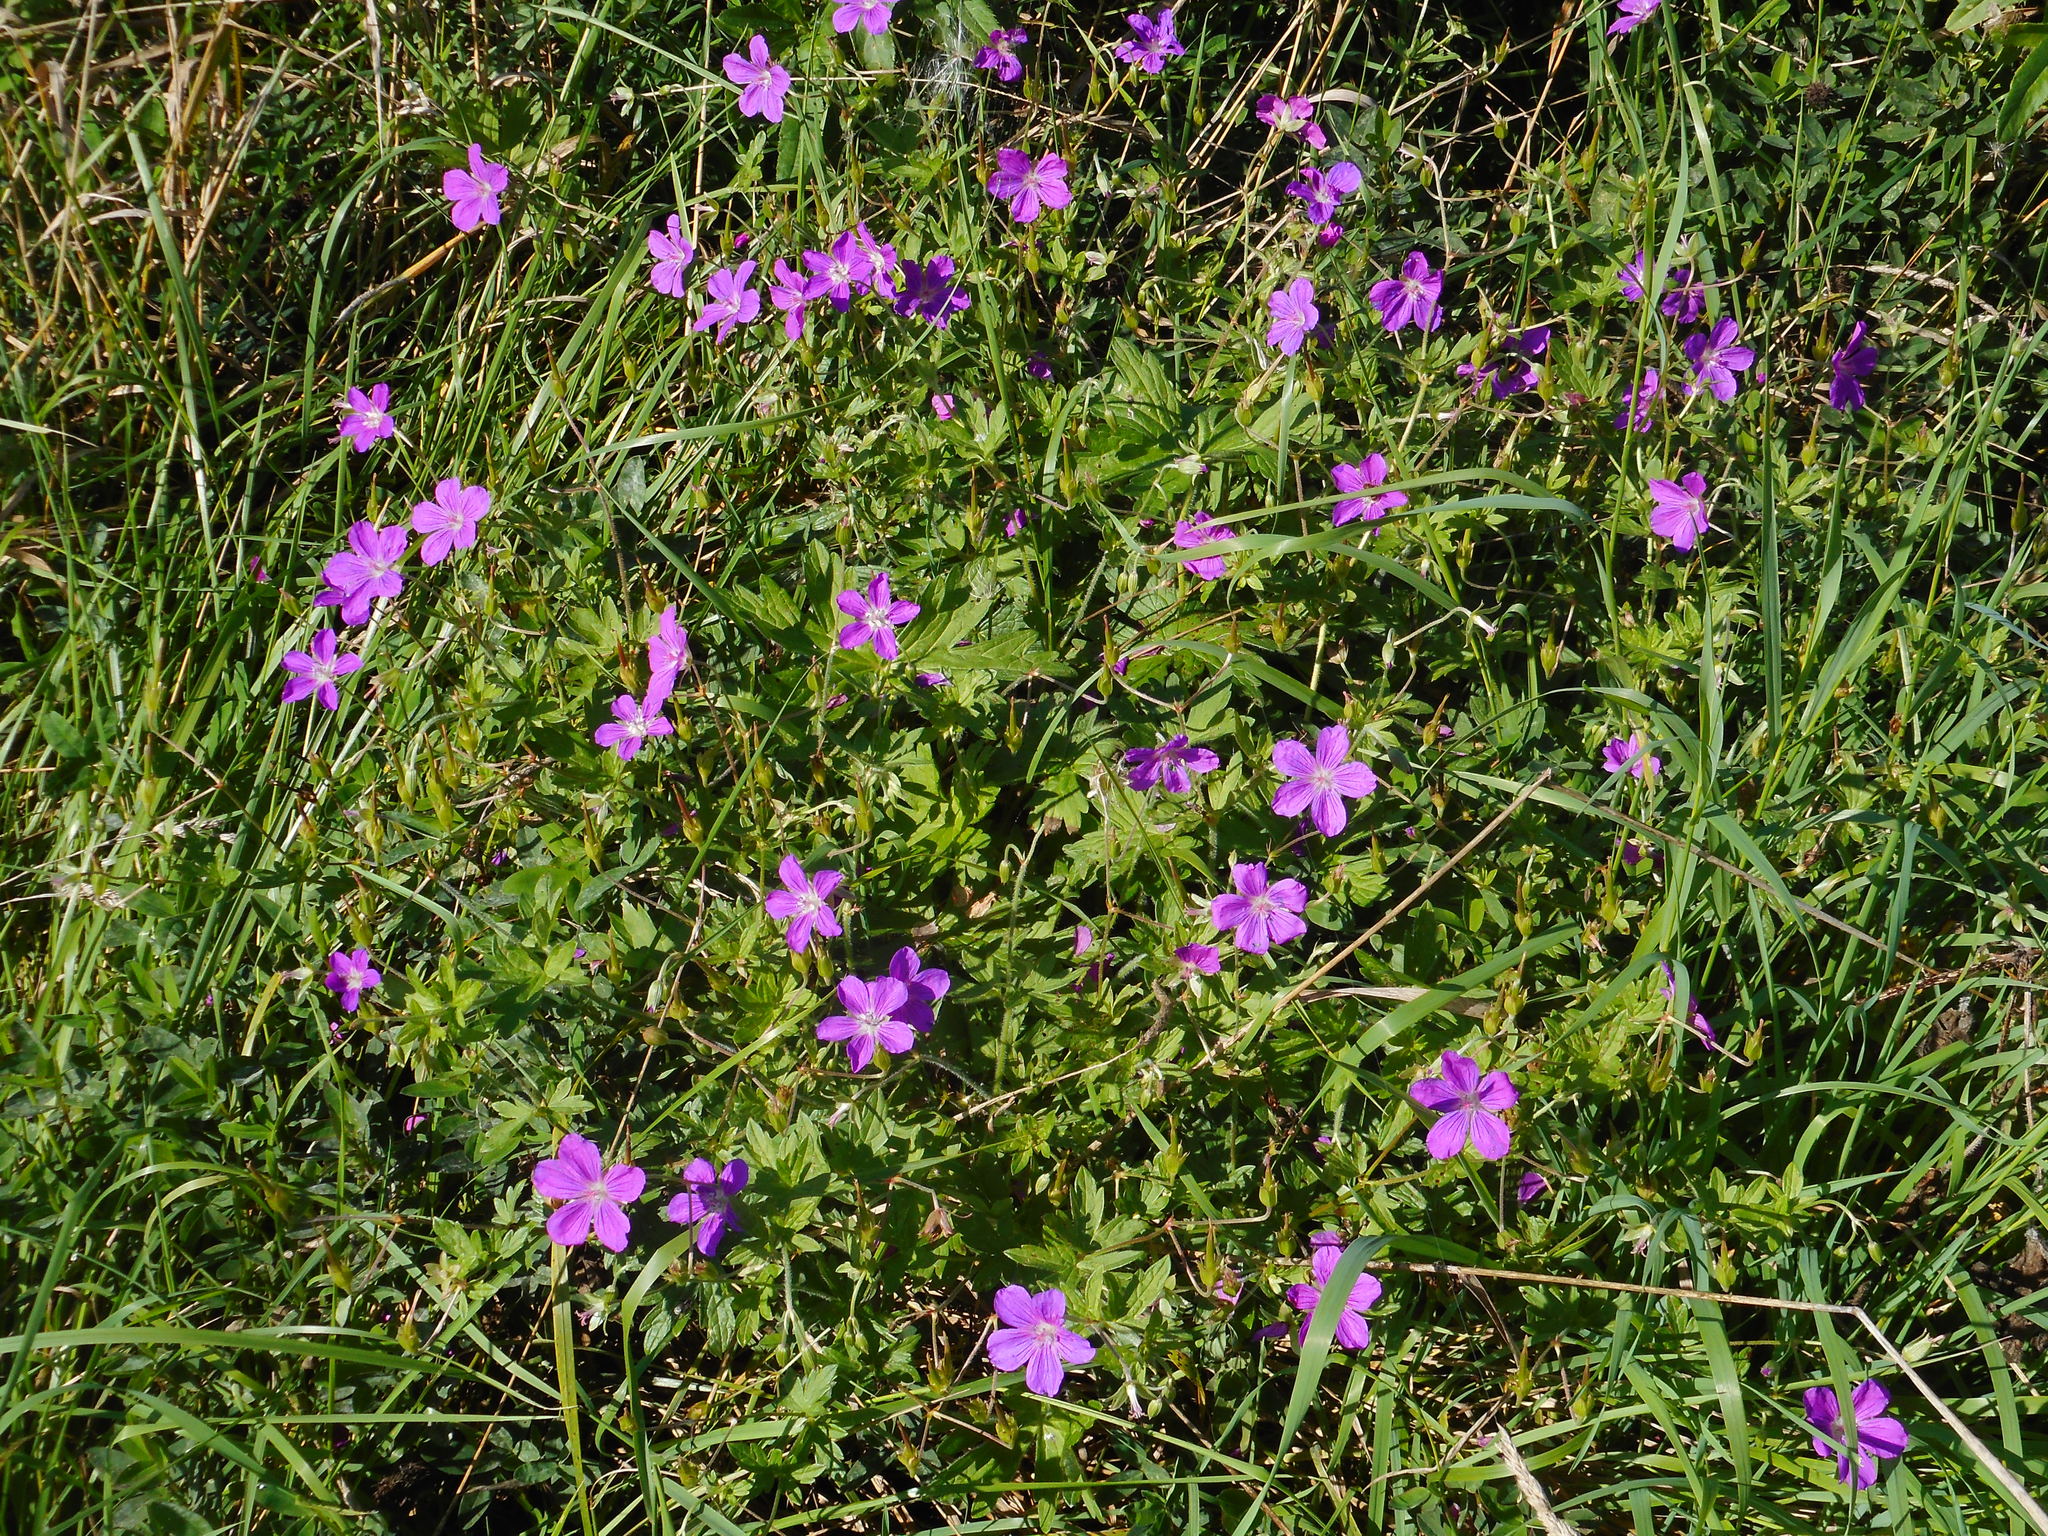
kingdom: Plantae
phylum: Tracheophyta
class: Magnoliopsida
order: Geraniales
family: Geraniaceae
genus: Geranium
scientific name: Geranium palustre
